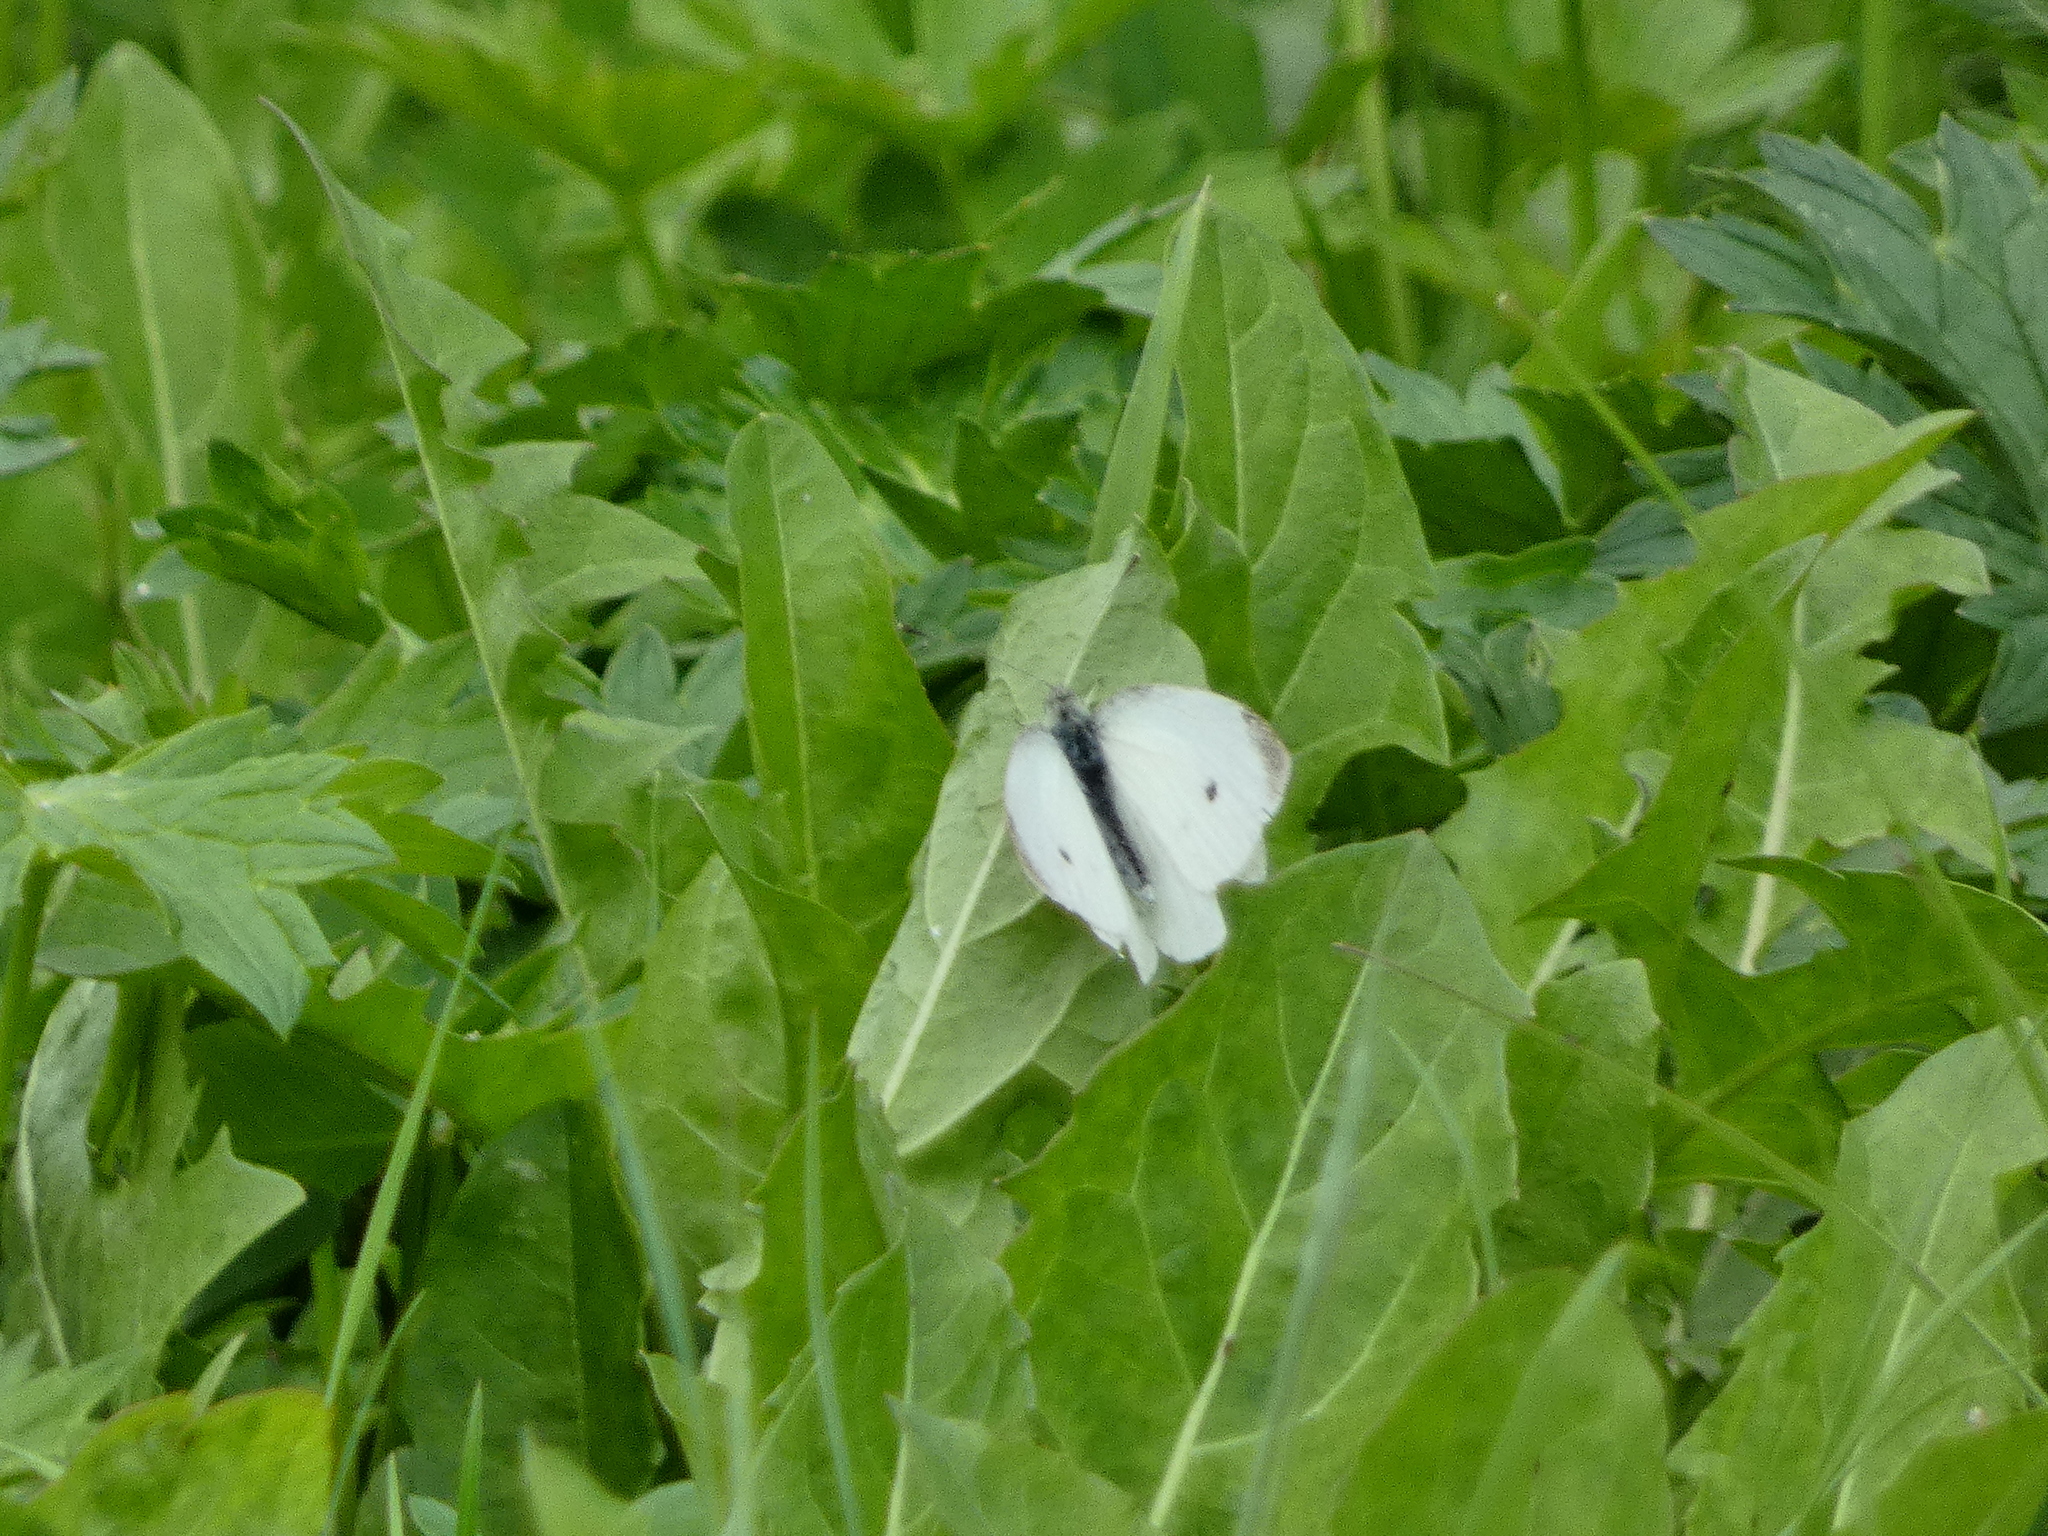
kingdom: Animalia
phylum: Arthropoda
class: Insecta
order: Lepidoptera
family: Pieridae
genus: Pieris
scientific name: Pieris rapae
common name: Small white
